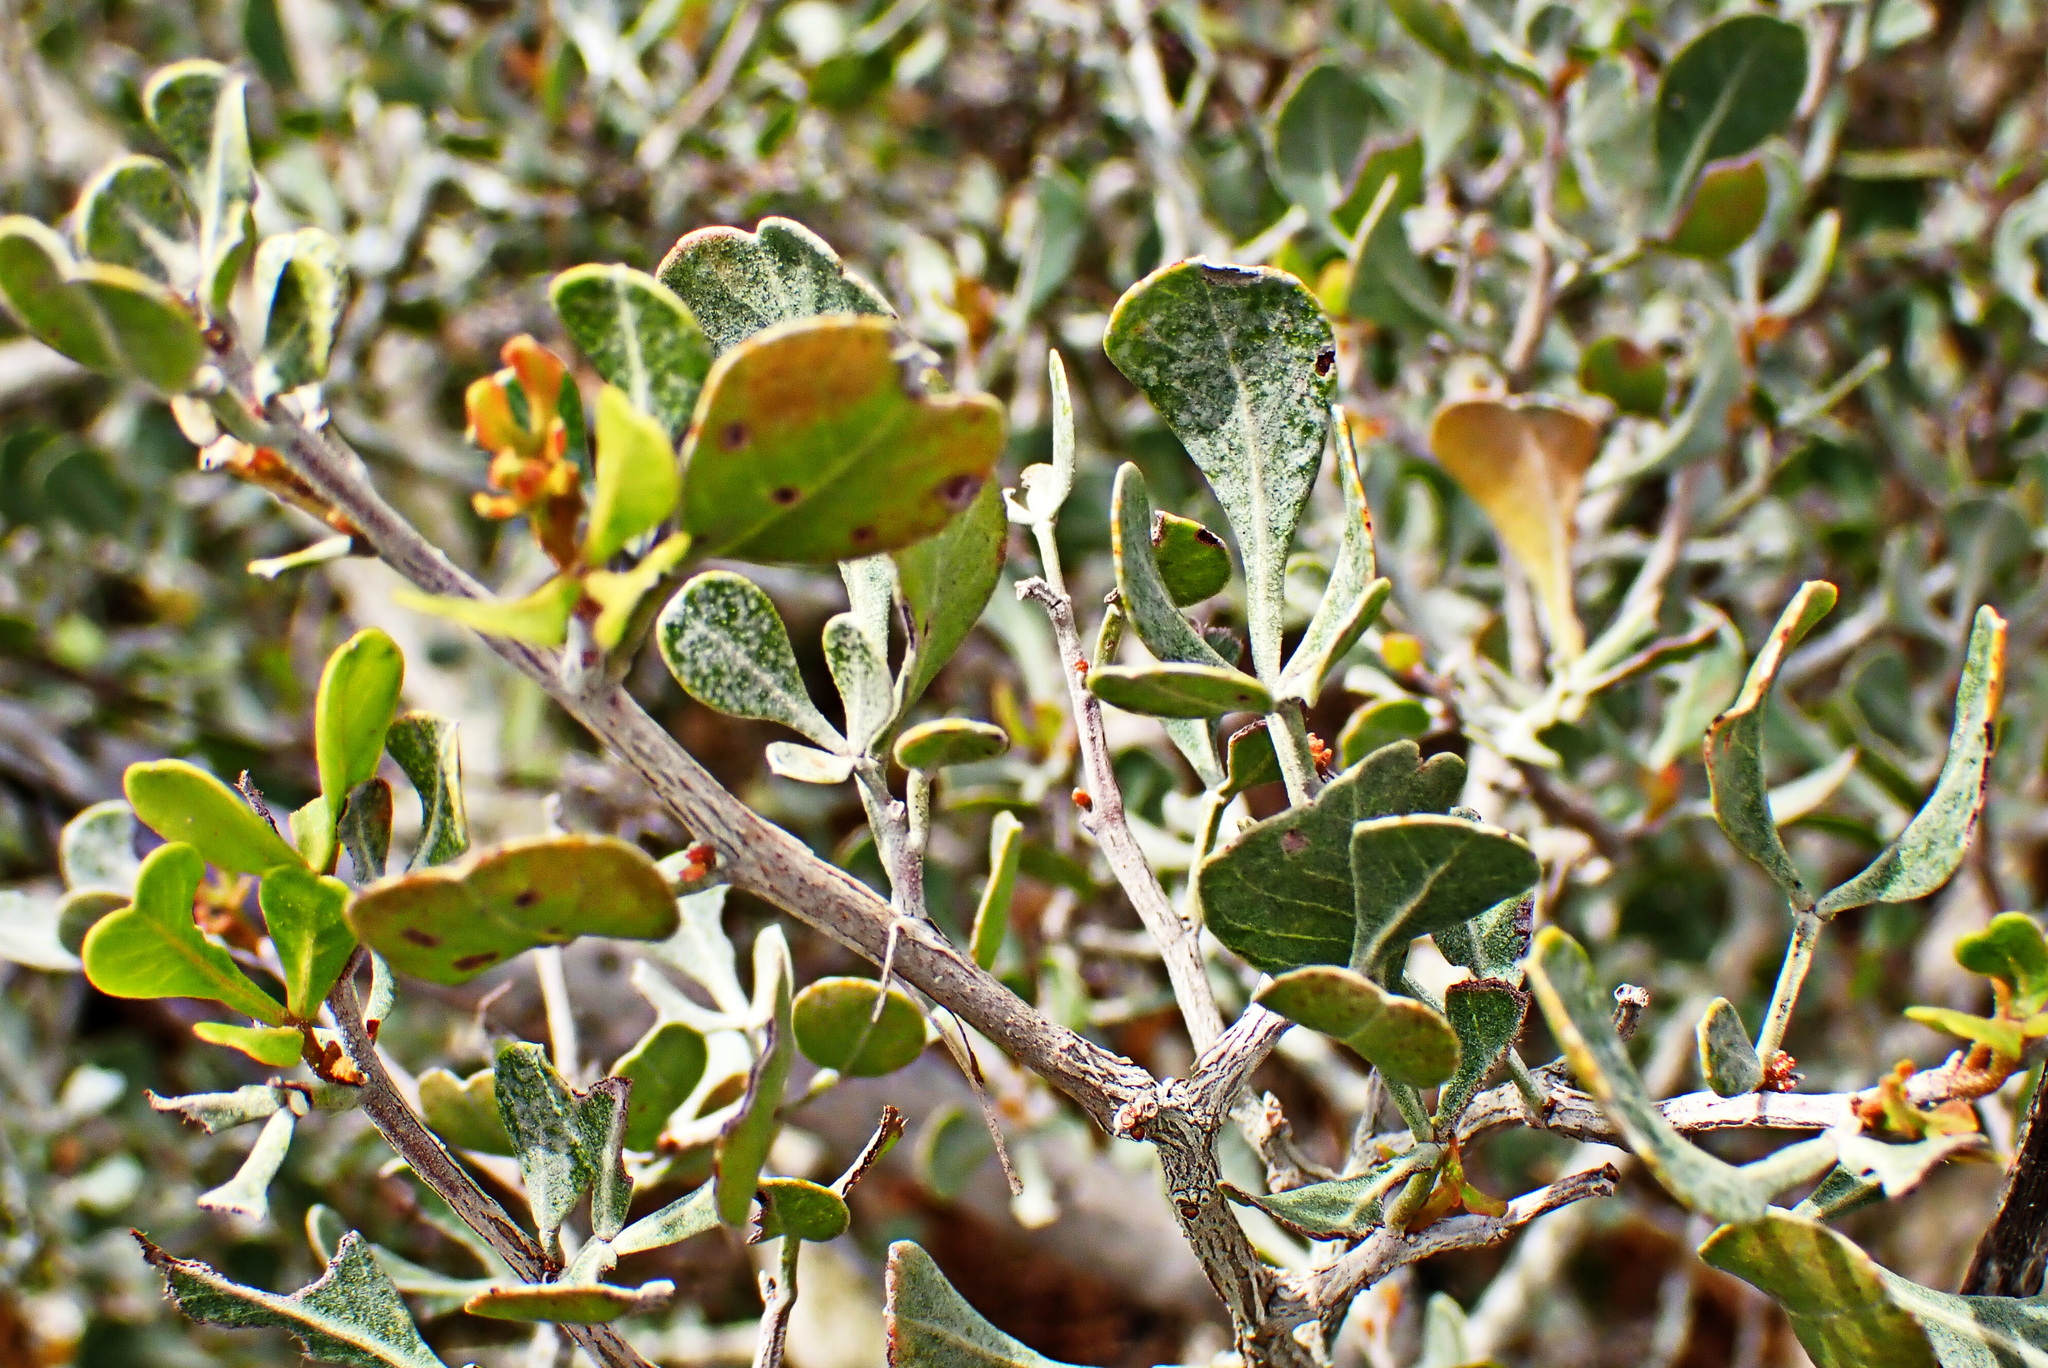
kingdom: Plantae
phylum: Tracheophyta
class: Magnoliopsida
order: Sapindales
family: Anacardiaceae
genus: Searsia
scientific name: Searsia glauca
